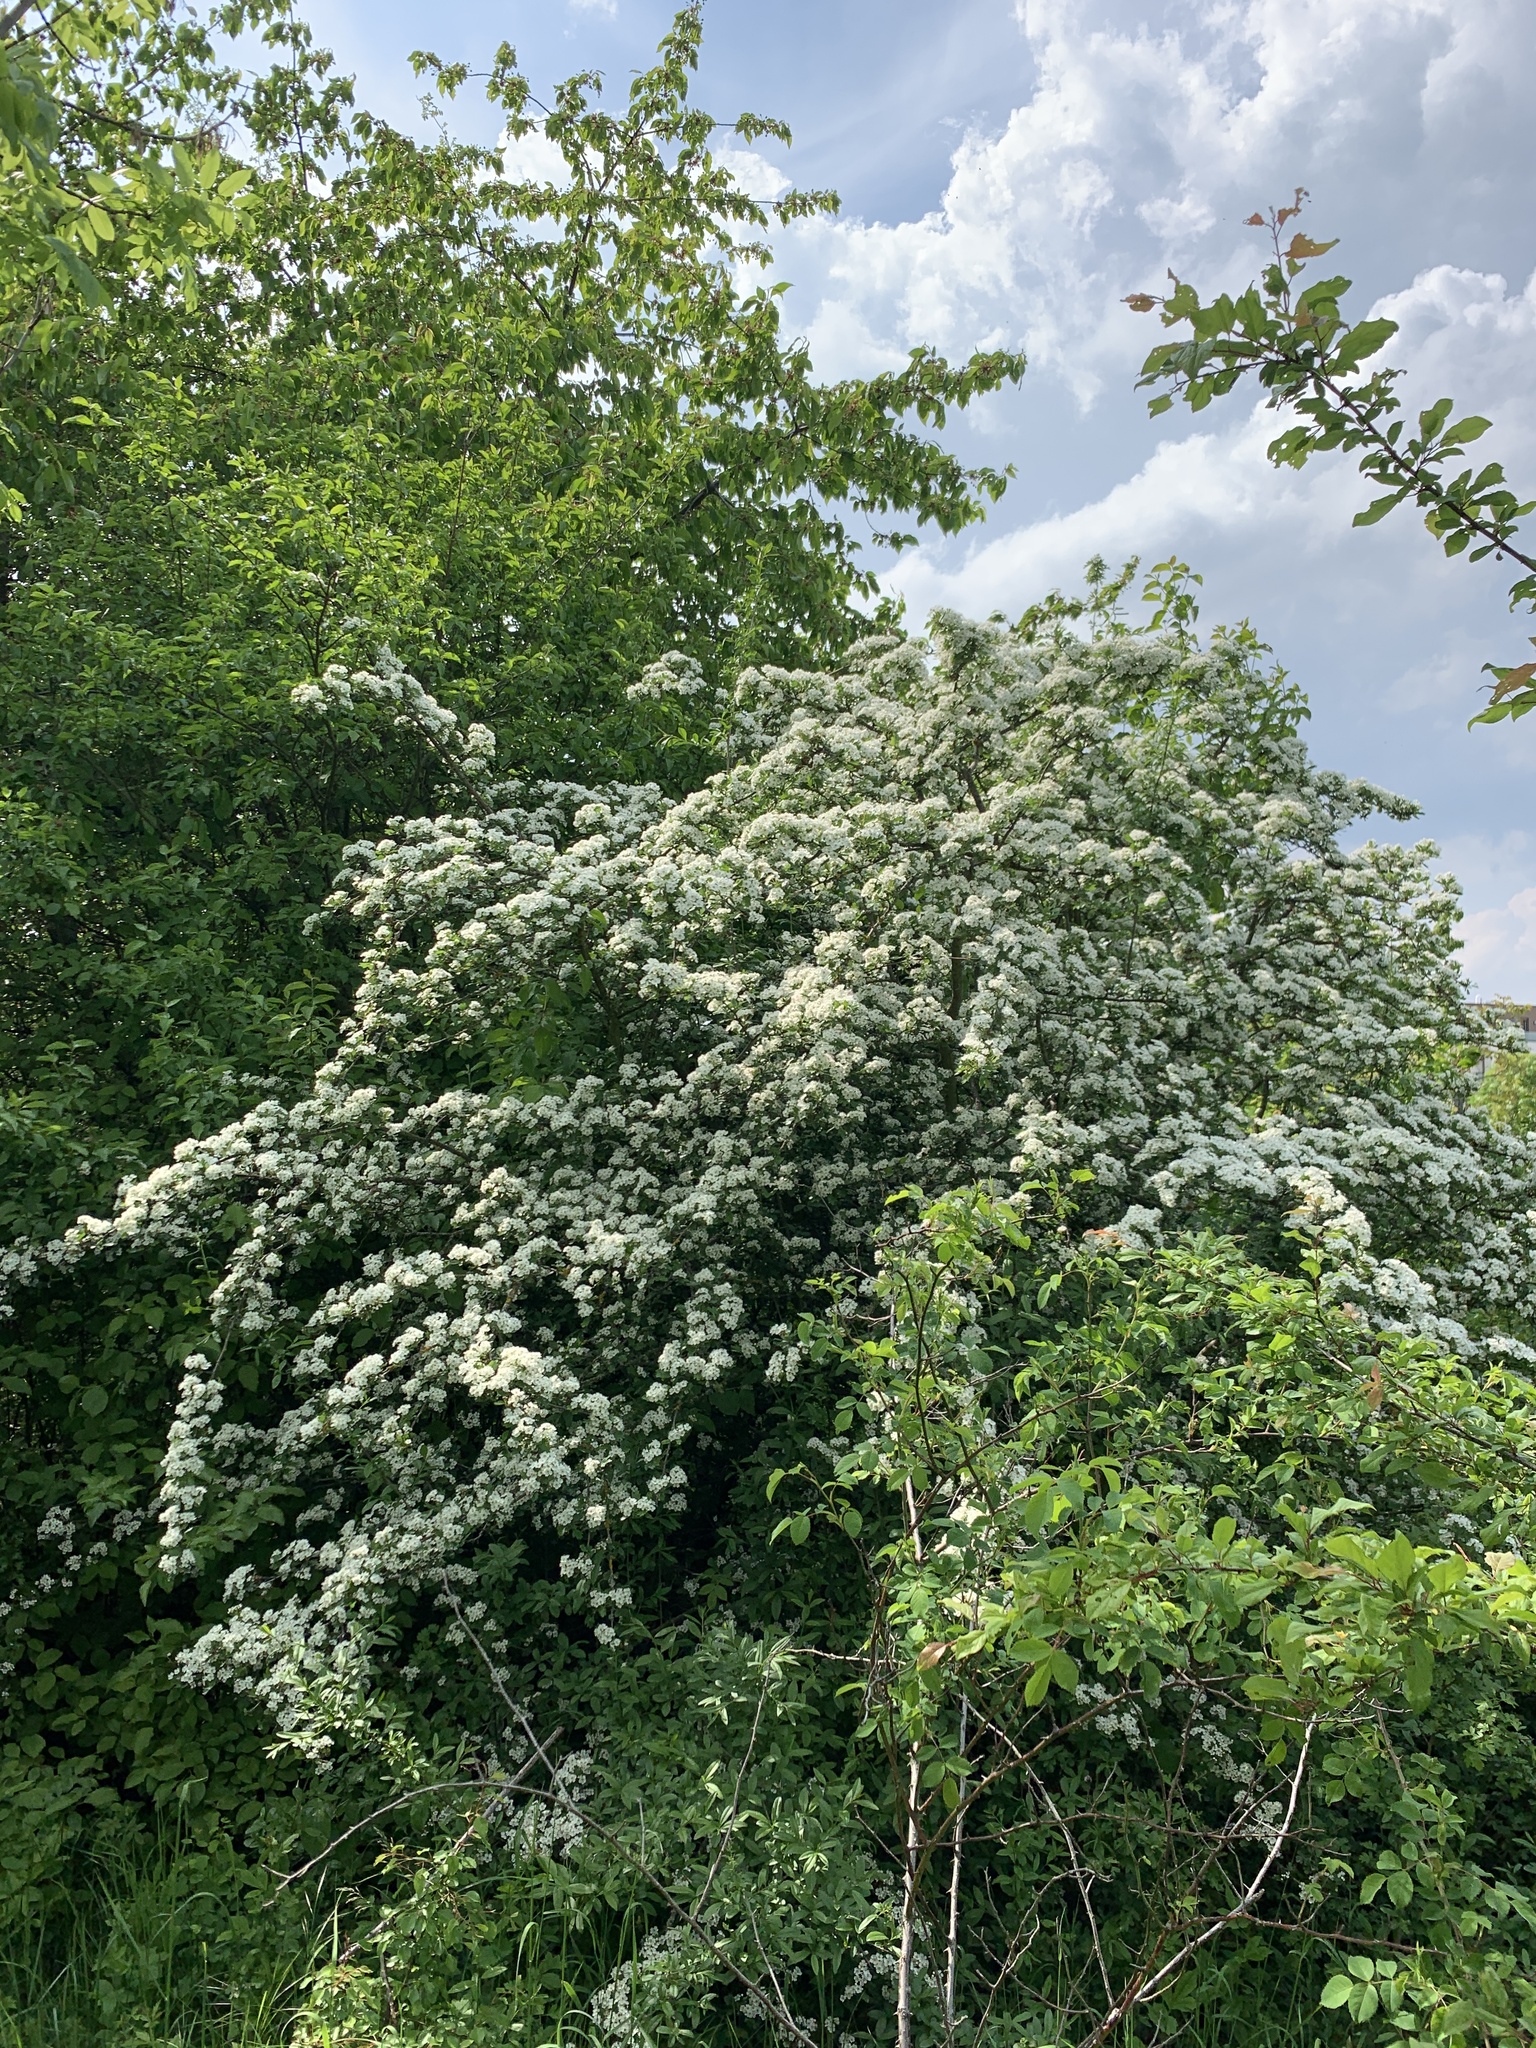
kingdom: Plantae
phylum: Tracheophyta
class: Magnoliopsida
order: Rosales
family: Rosaceae
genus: Crataegus
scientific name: Crataegus monogyna
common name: Hawthorn
